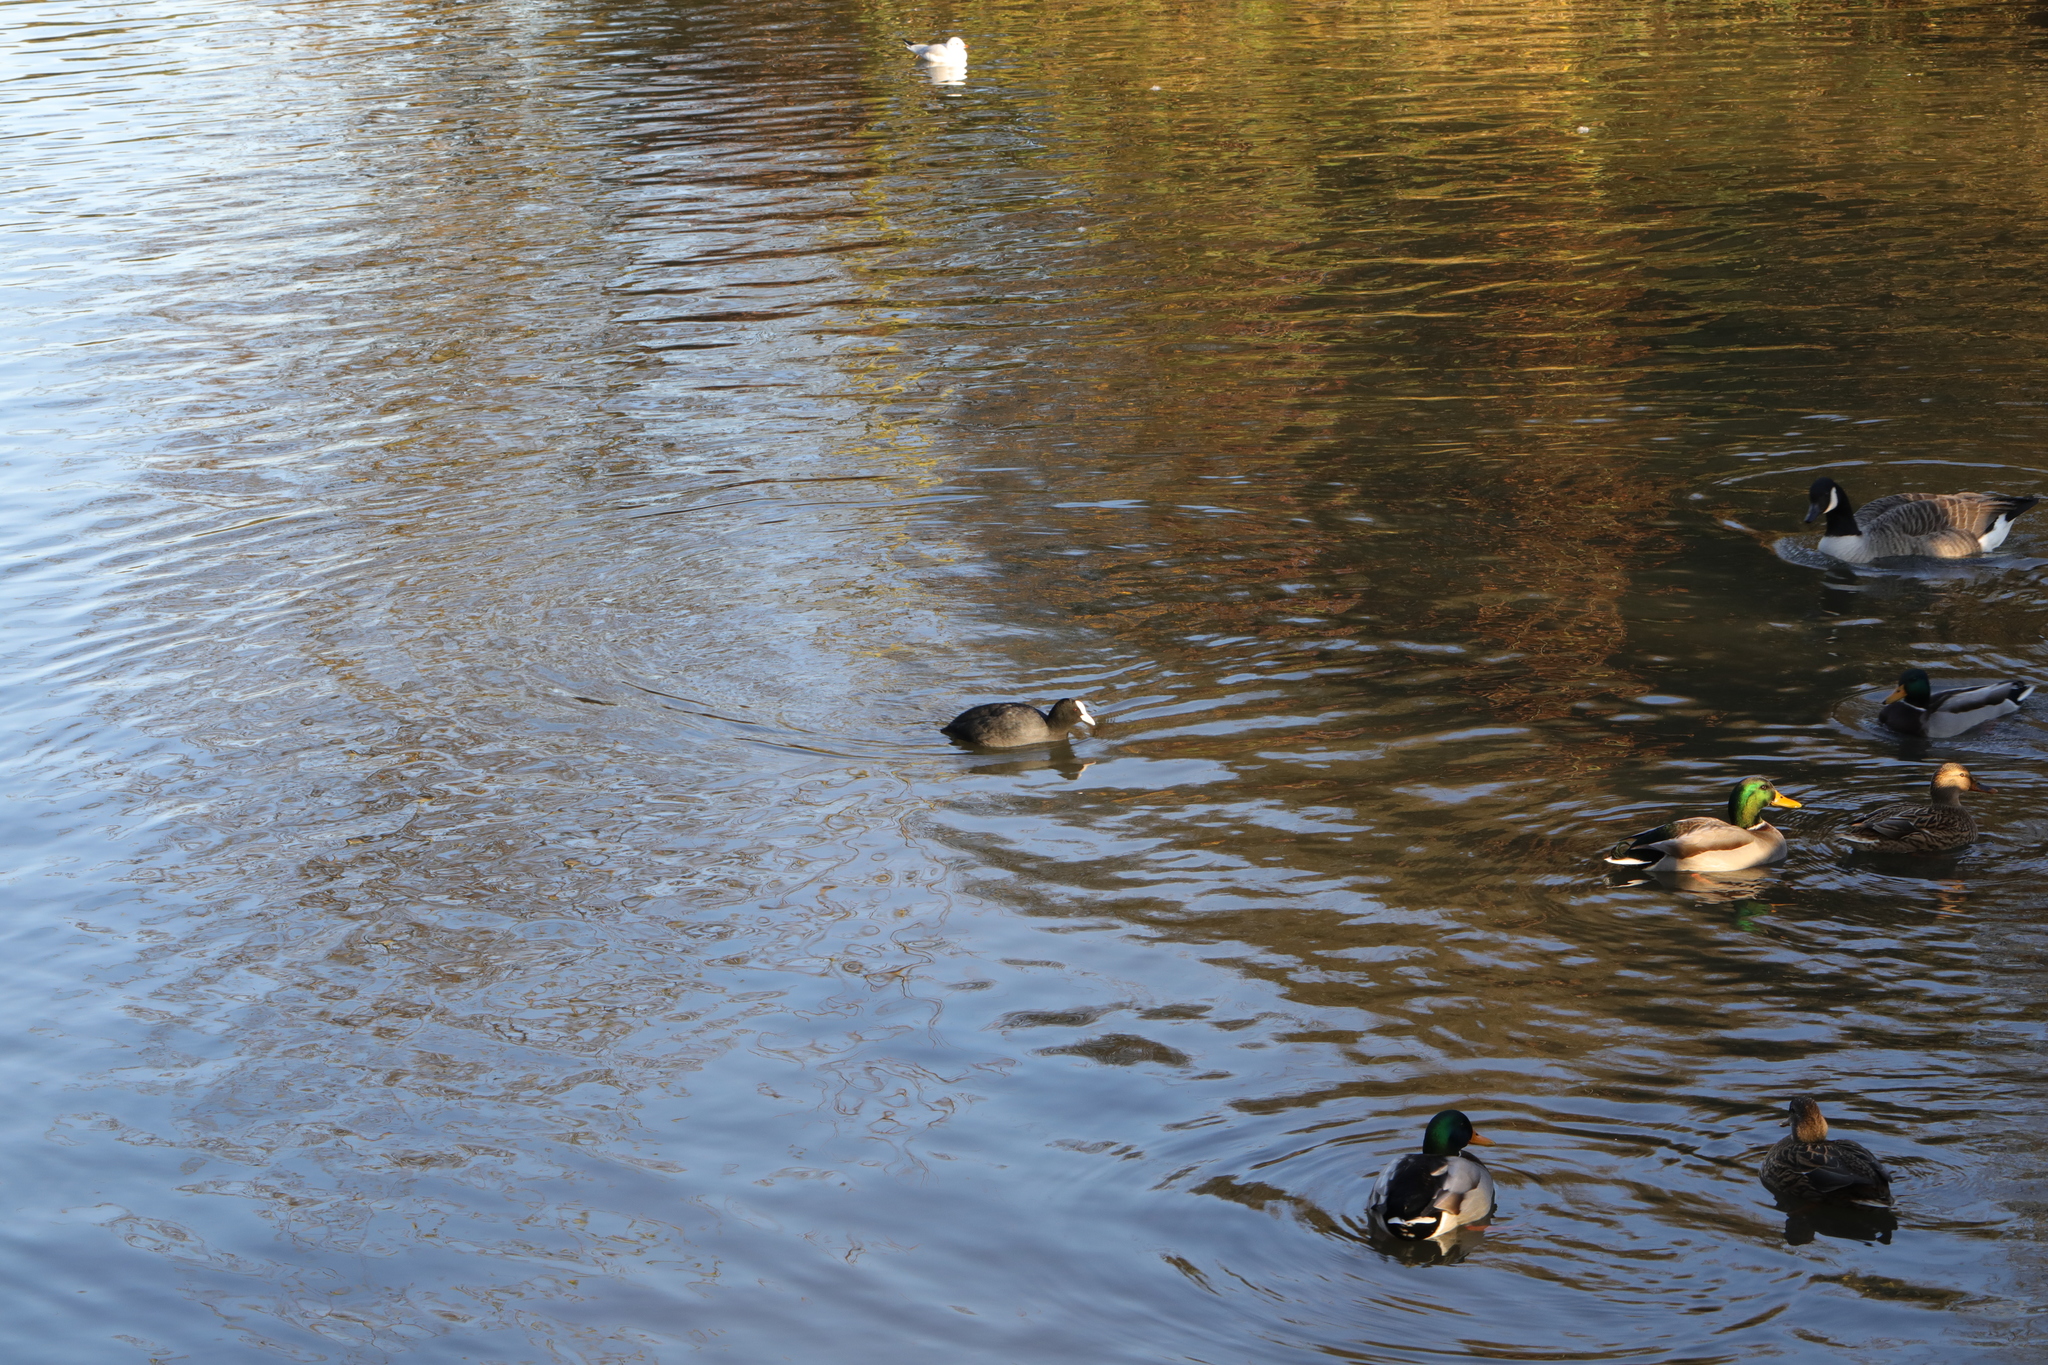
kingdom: Animalia
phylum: Chordata
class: Aves
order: Gruiformes
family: Rallidae
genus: Fulica
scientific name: Fulica atra
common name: Eurasian coot
